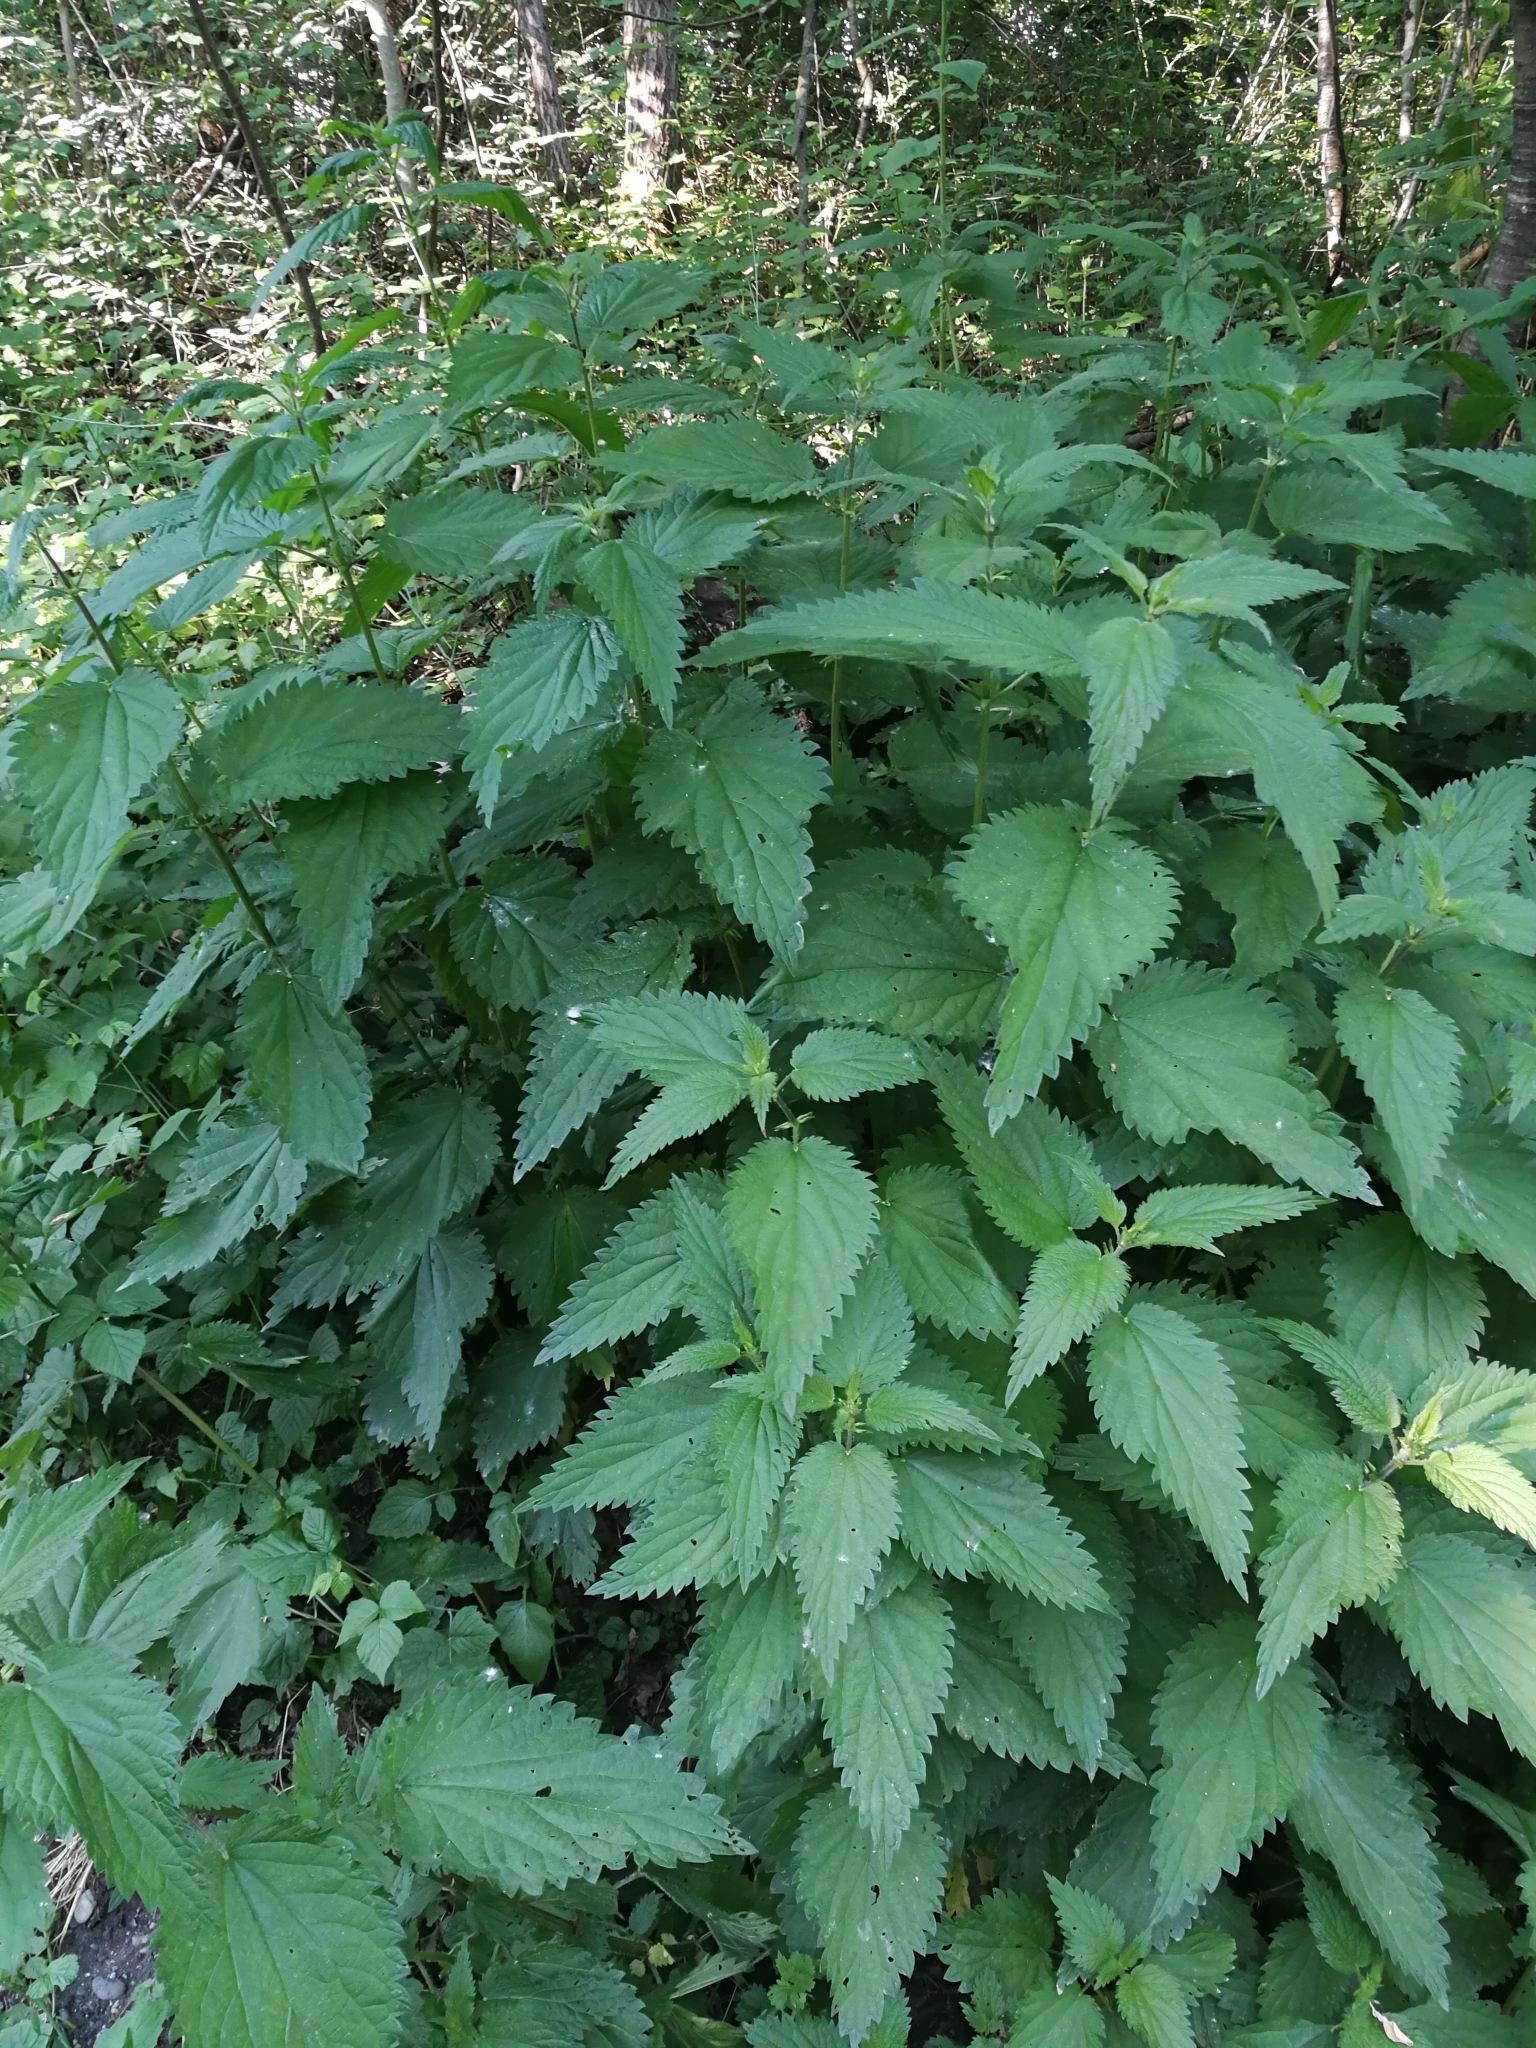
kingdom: Plantae
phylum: Tracheophyta
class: Magnoliopsida
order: Rosales
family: Urticaceae
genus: Urtica
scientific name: Urtica dioica
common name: Common nettle
